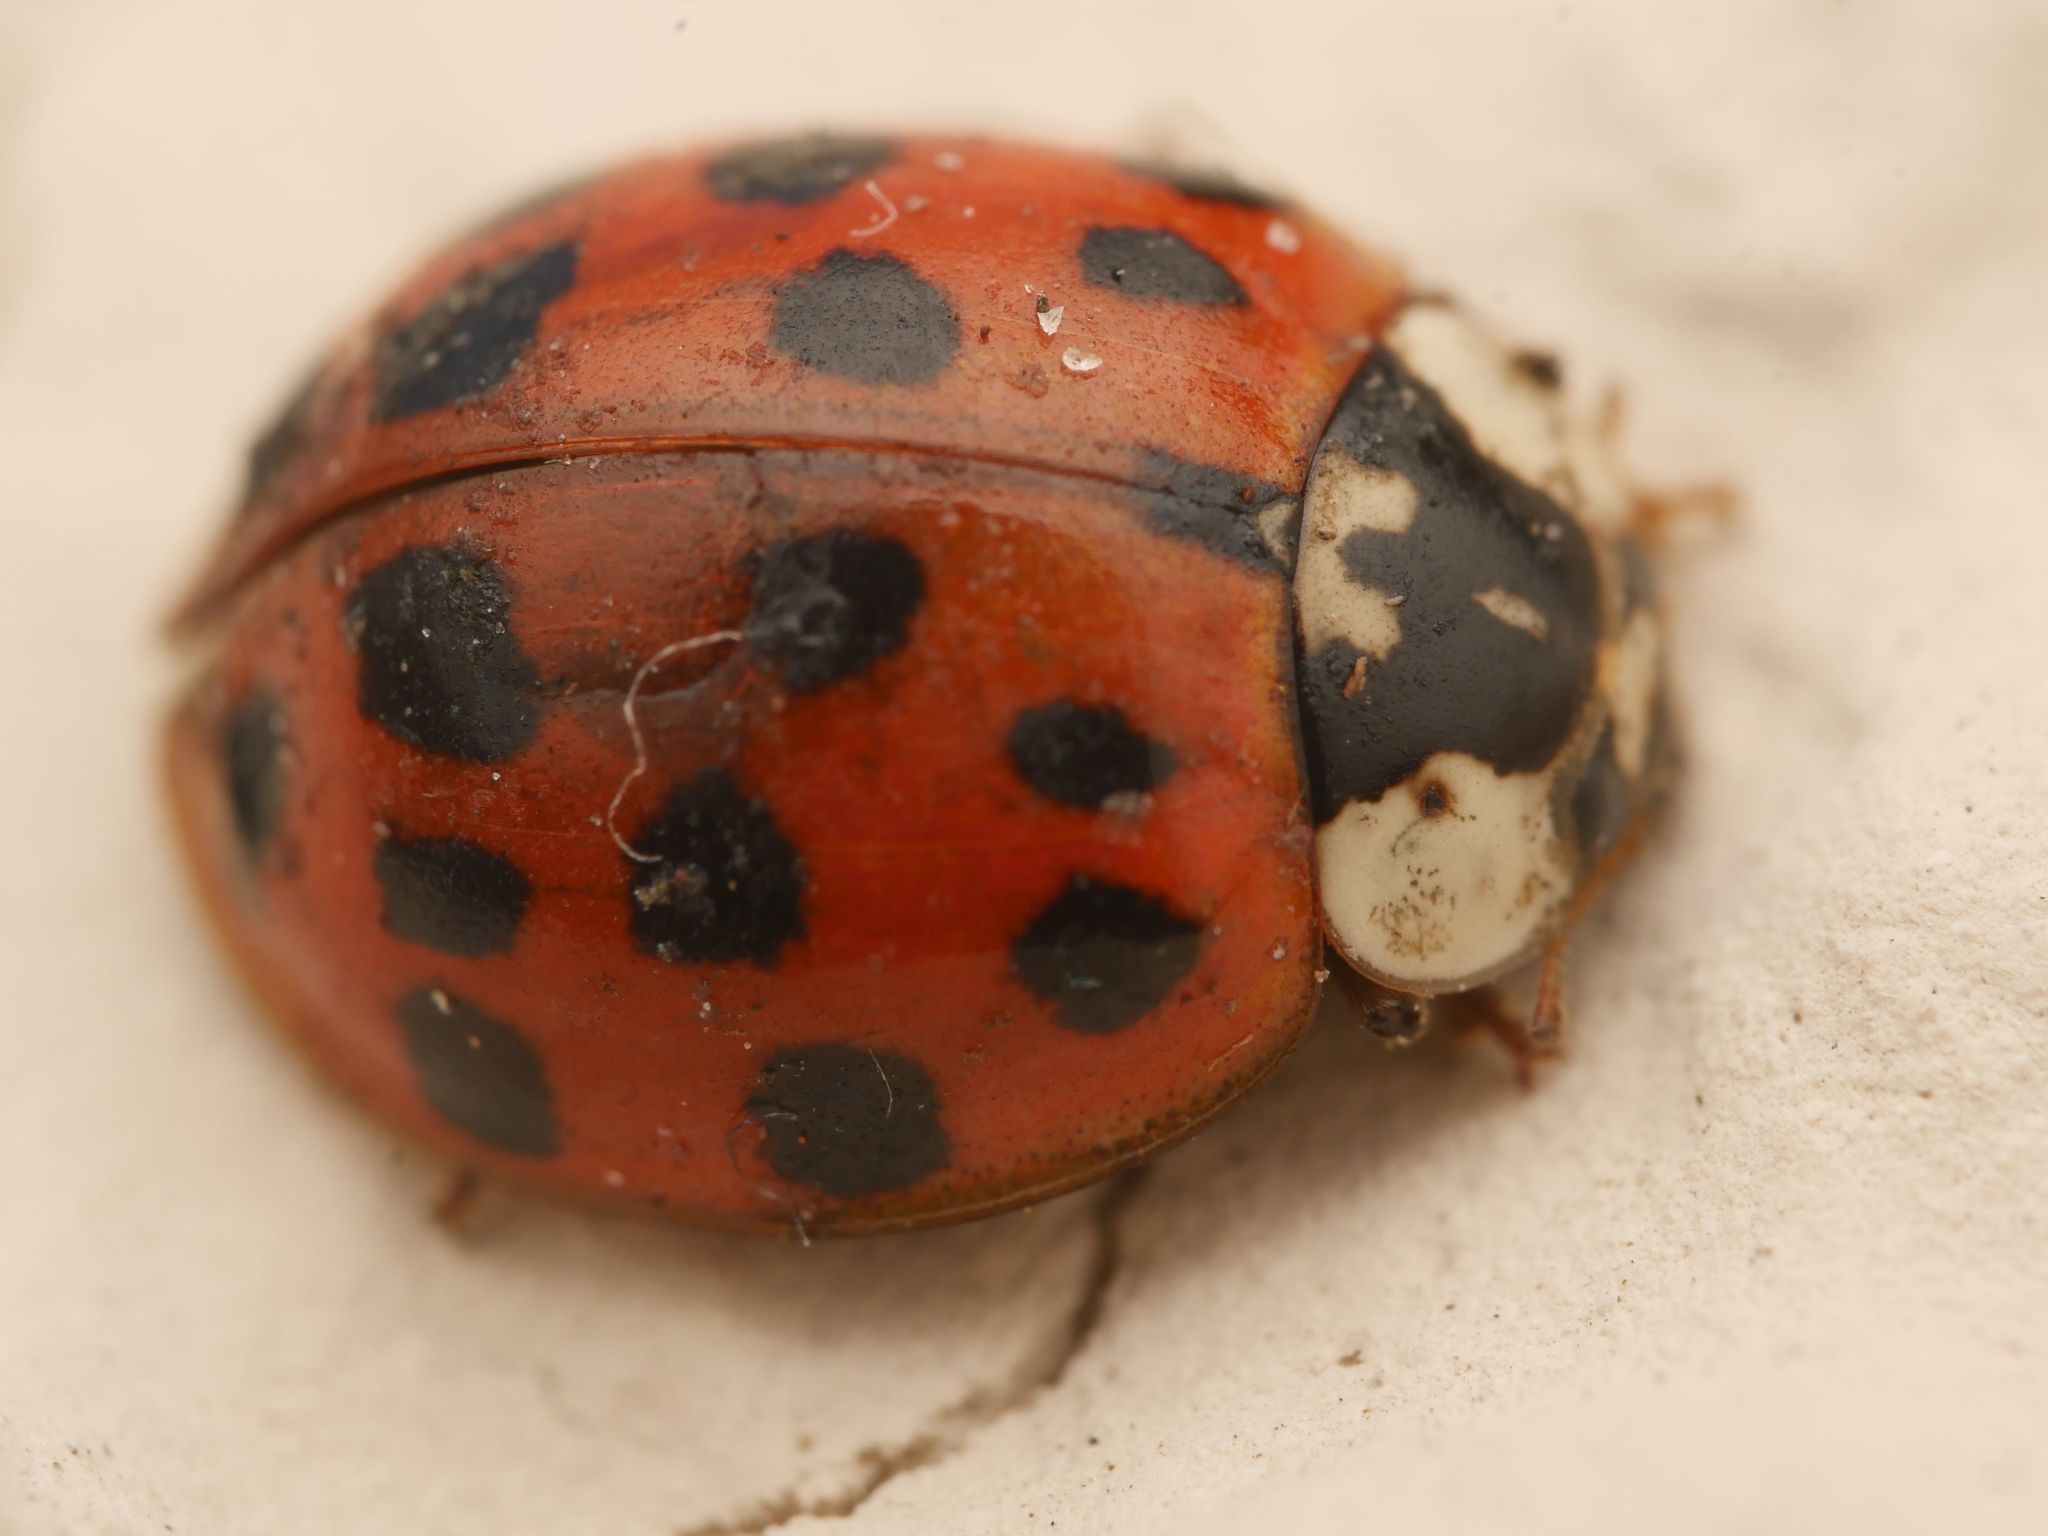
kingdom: Animalia
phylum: Arthropoda
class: Insecta
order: Coleoptera
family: Coccinellidae
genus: Harmonia
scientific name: Harmonia axyridis
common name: Harlequin ladybird
